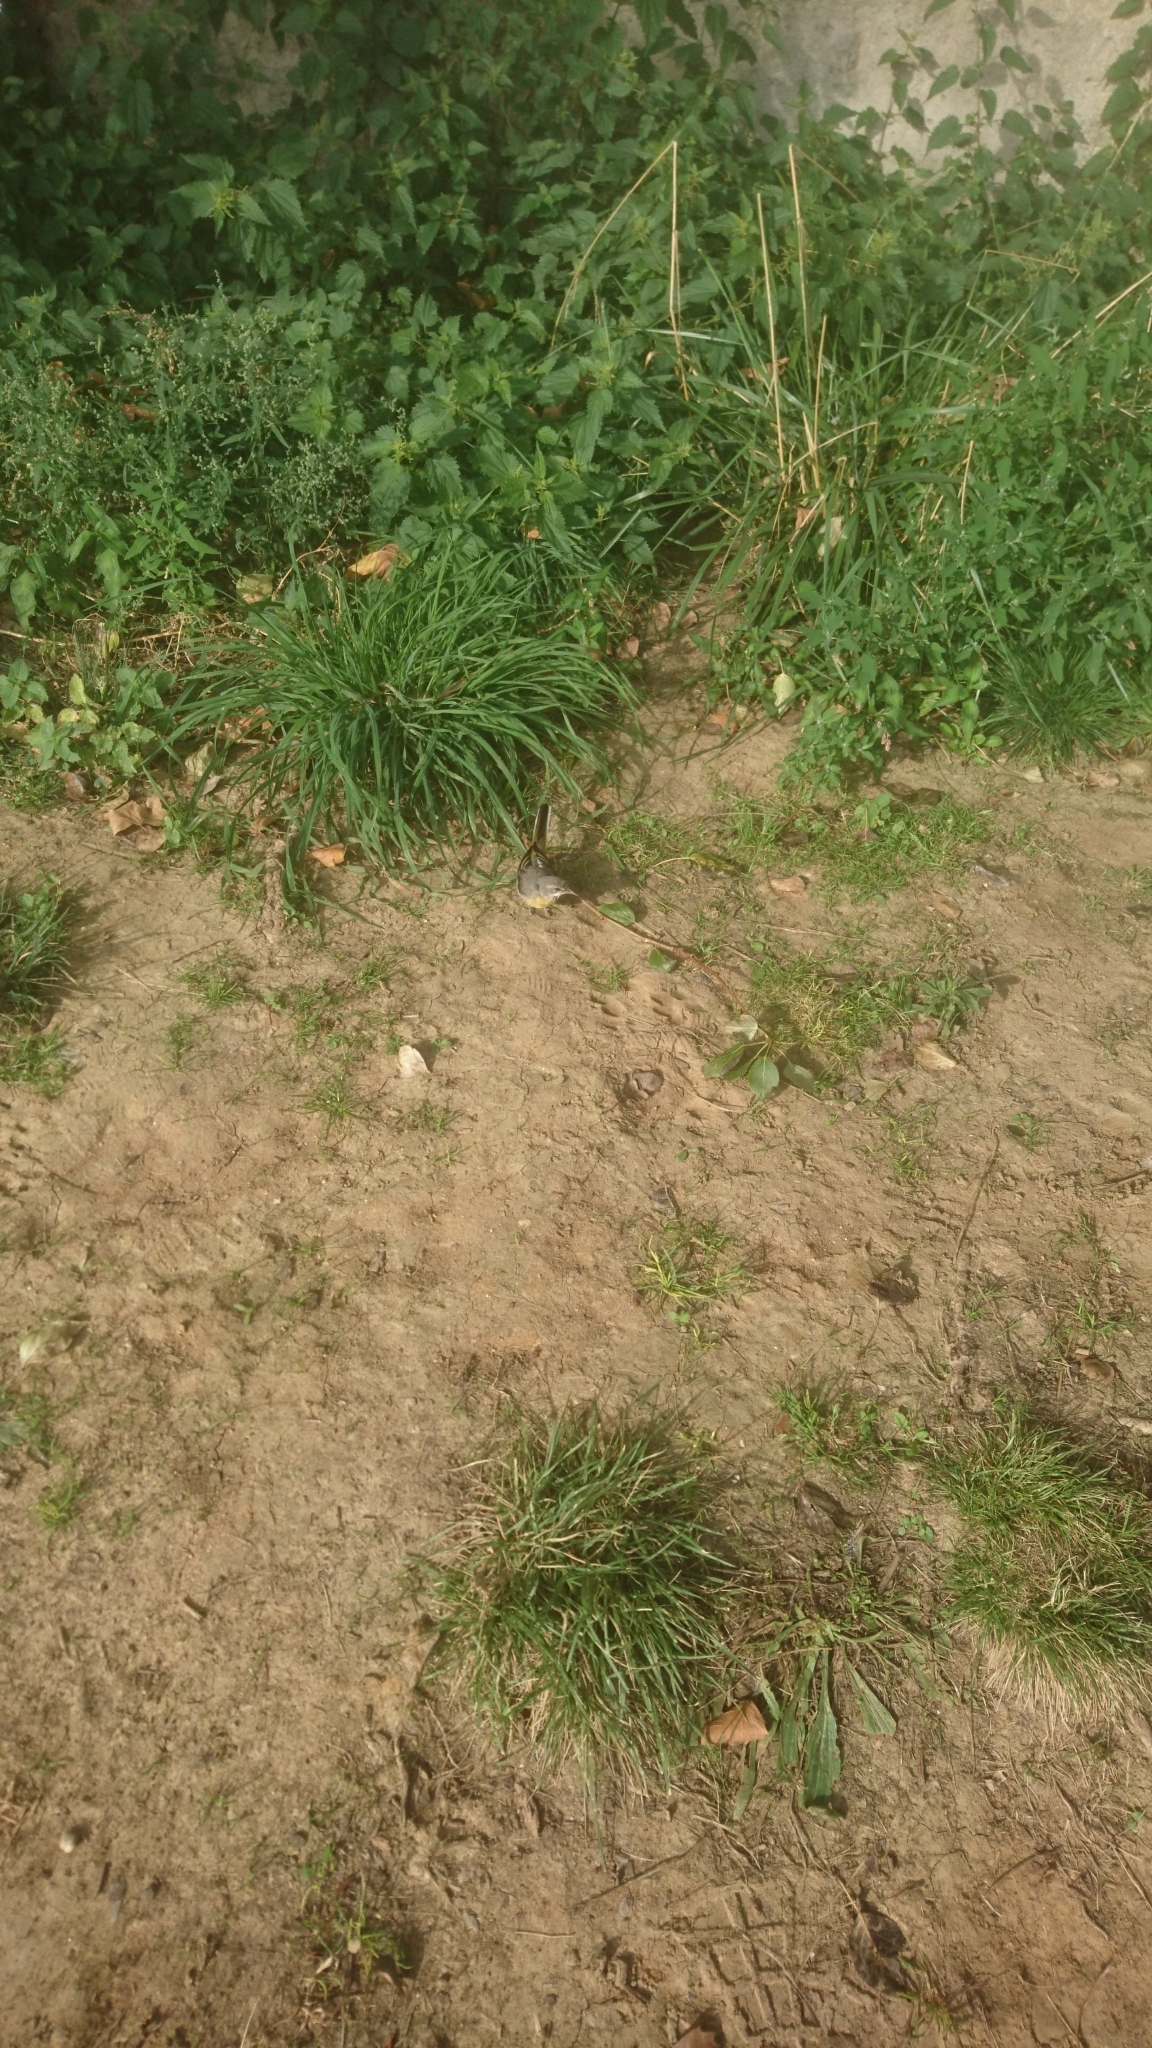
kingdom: Animalia
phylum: Chordata
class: Aves
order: Passeriformes
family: Motacillidae
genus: Motacilla
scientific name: Motacilla cinerea
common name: Grey wagtail
